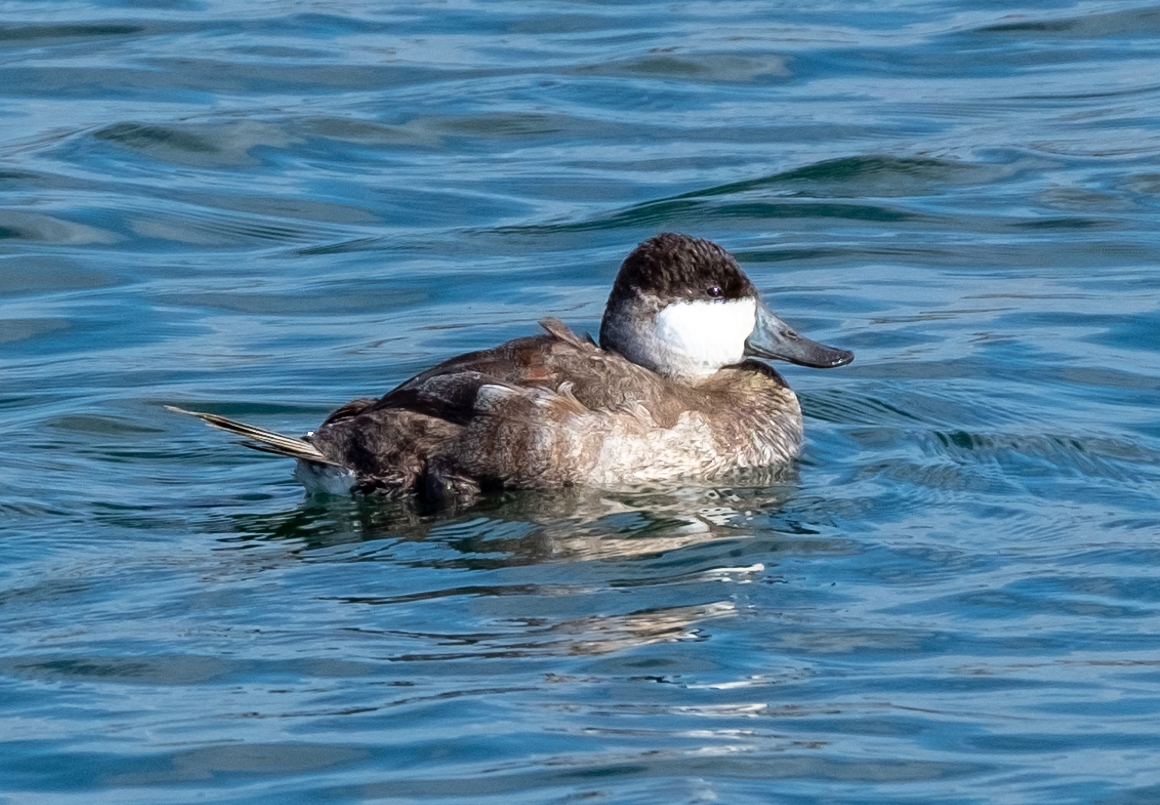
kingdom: Animalia
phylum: Chordata
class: Aves
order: Anseriformes
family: Anatidae
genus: Oxyura
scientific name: Oxyura jamaicensis
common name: Ruddy duck
